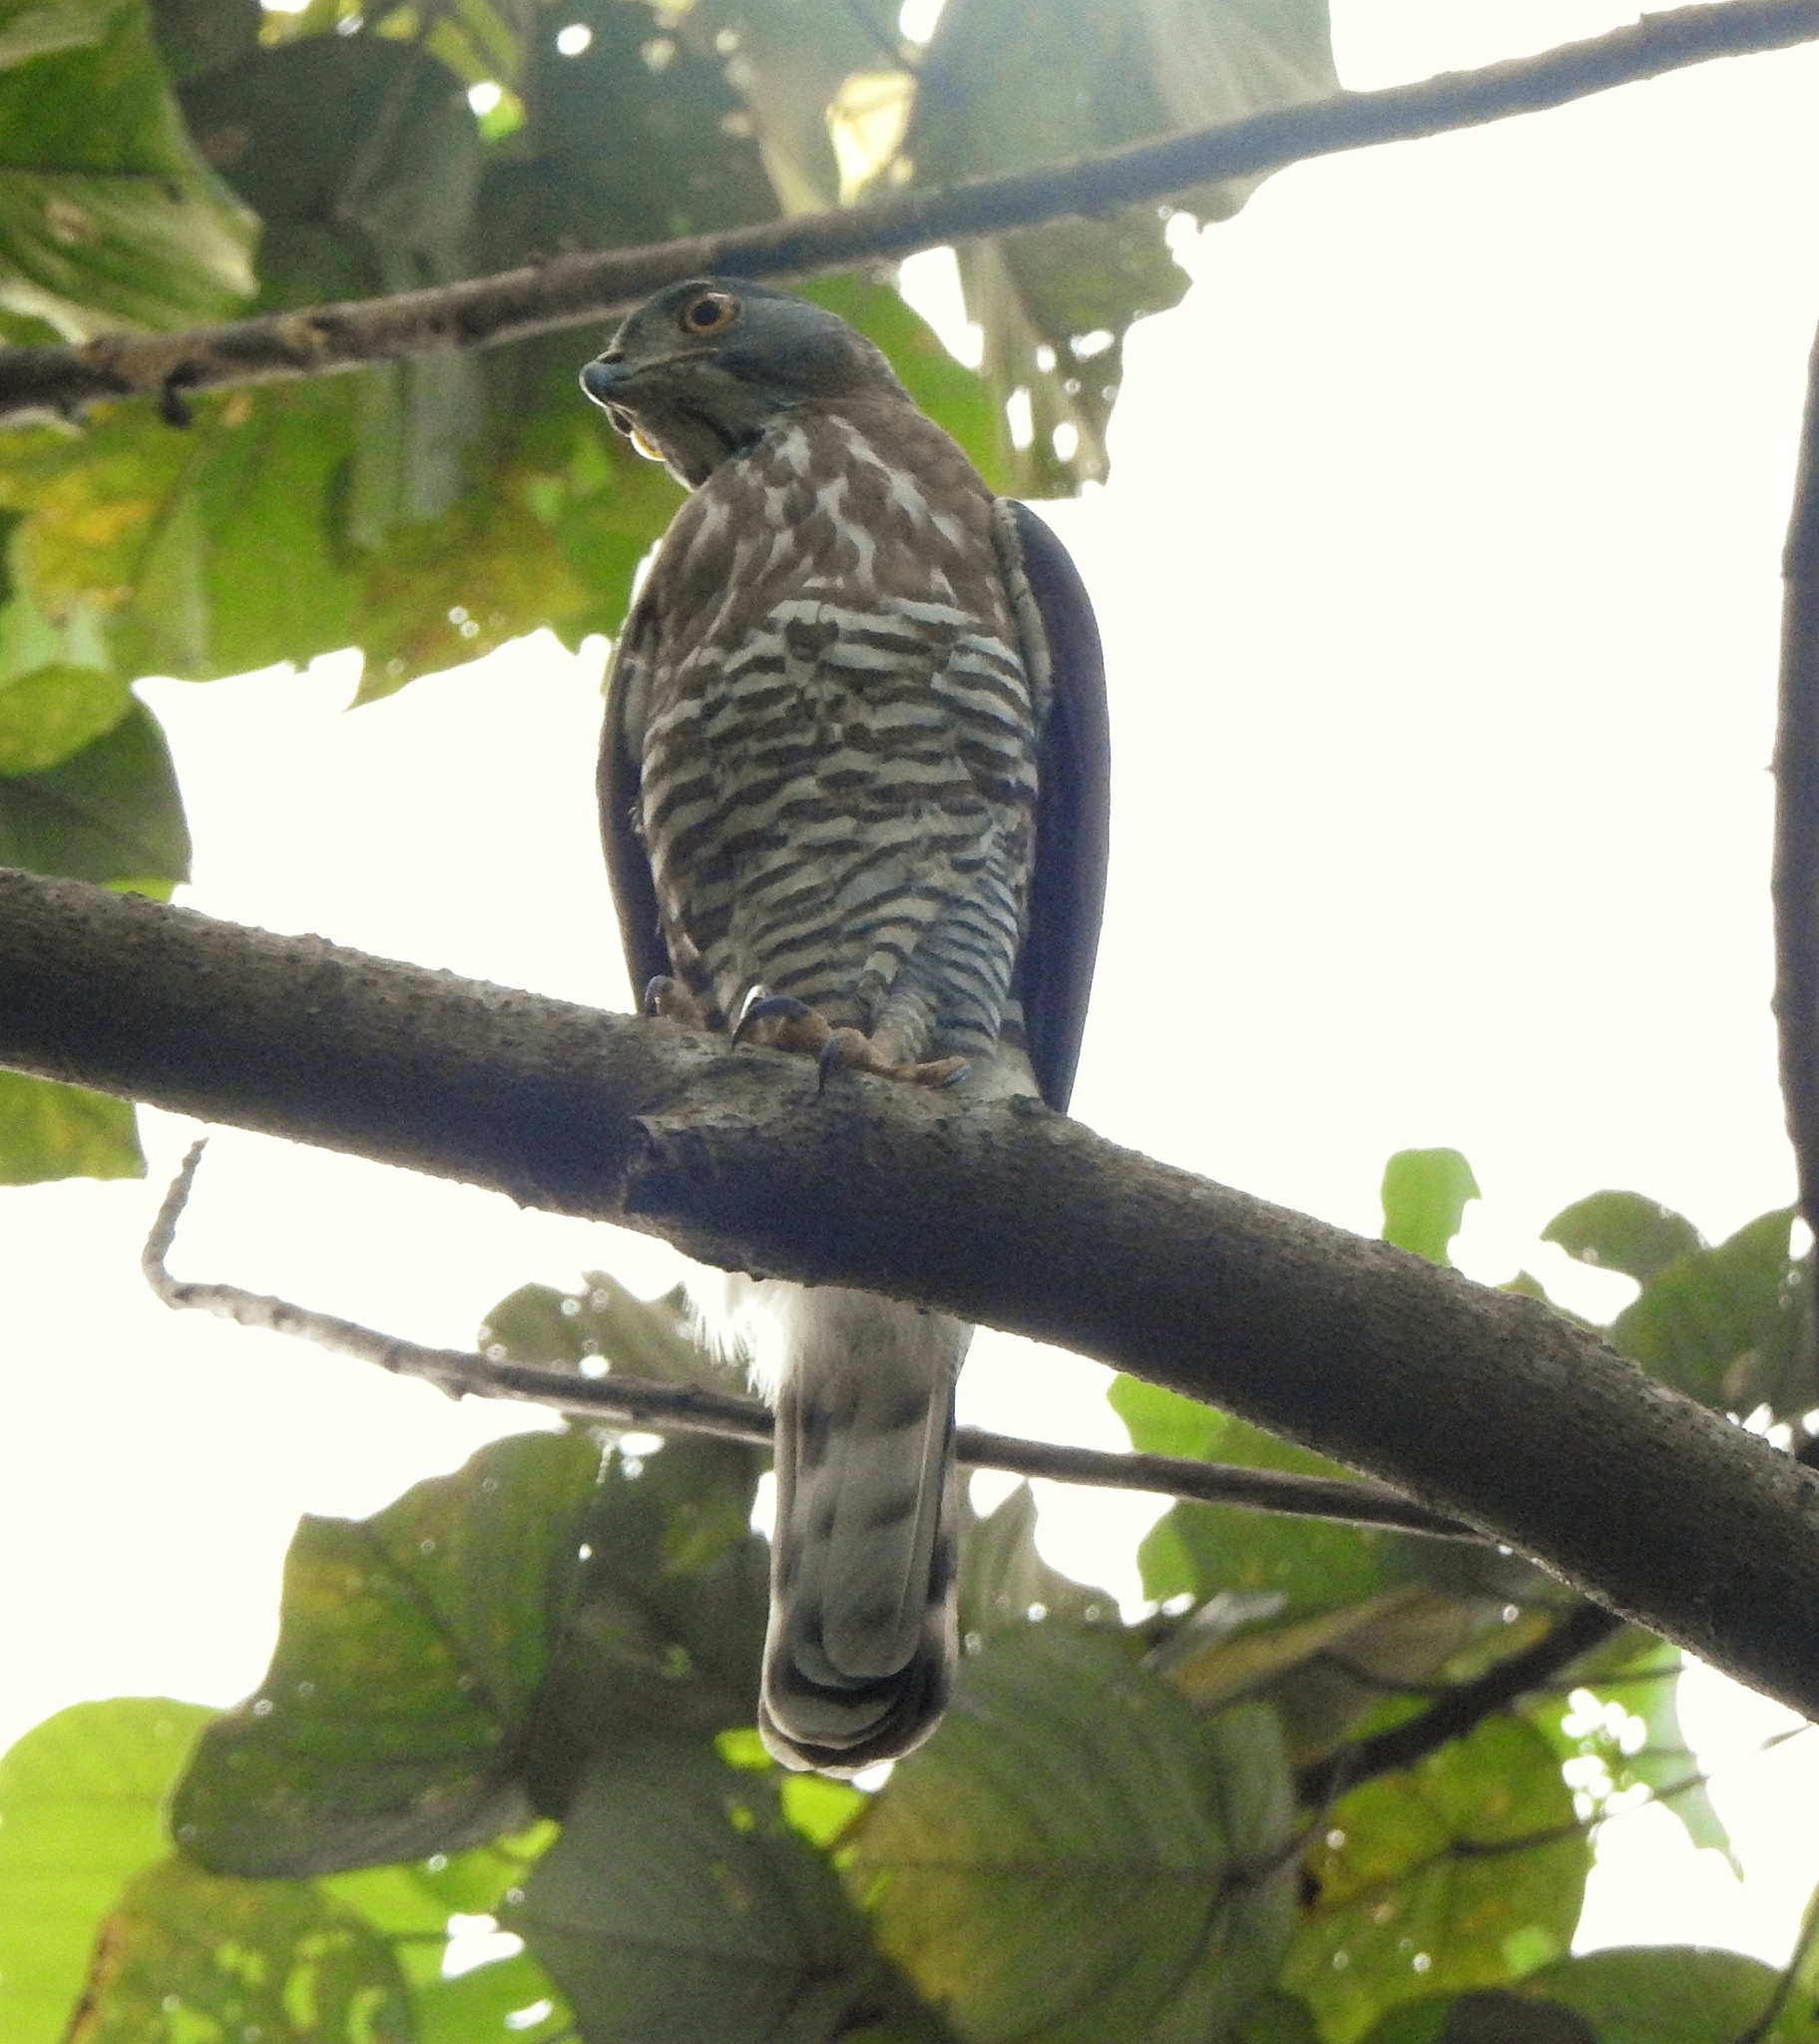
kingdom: Animalia
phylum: Chordata
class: Aves
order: Accipitriformes
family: Accipitridae
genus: Accipiter
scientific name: Accipiter trivirgatus
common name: Crested goshawk
